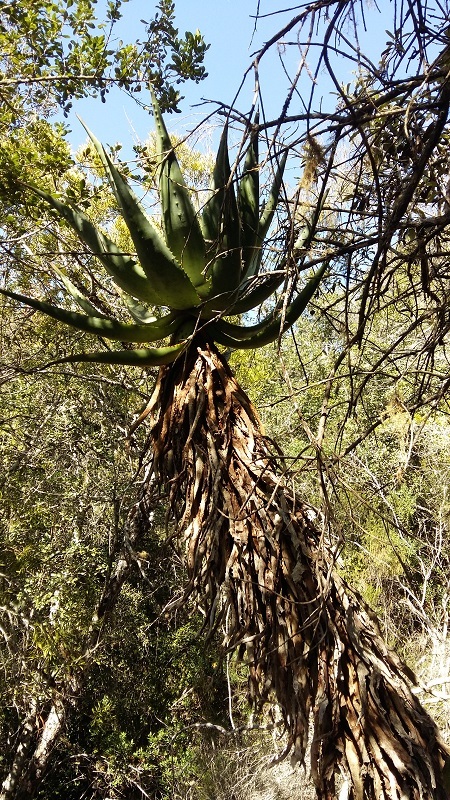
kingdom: Plantae
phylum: Tracheophyta
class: Liliopsida
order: Asparagales
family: Asphodelaceae
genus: Aloe
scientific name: Aloe ferox
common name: Bitter aloe
